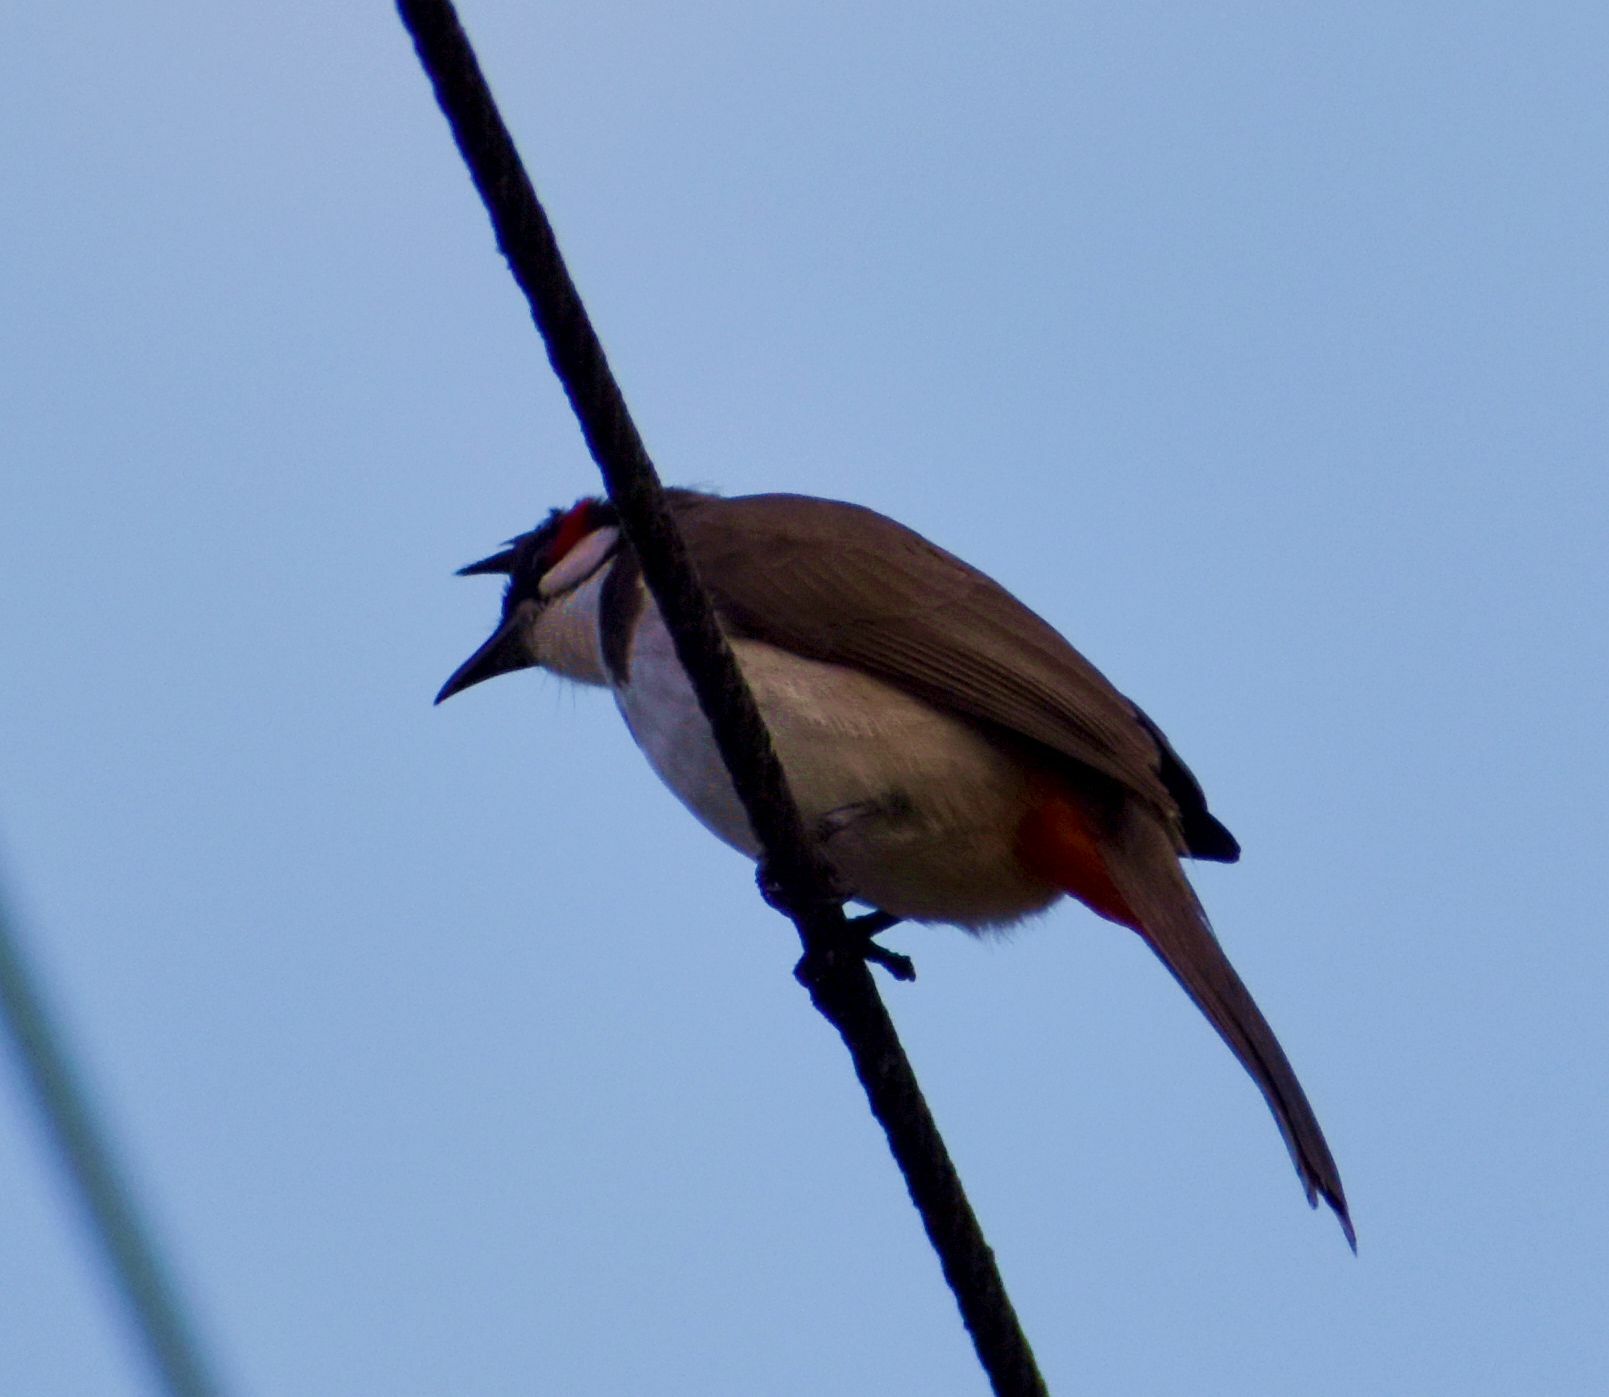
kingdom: Animalia
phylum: Chordata
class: Aves
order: Passeriformes
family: Pycnonotidae
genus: Pycnonotus
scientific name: Pycnonotus jocosus
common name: Red-whiskered bulbul
